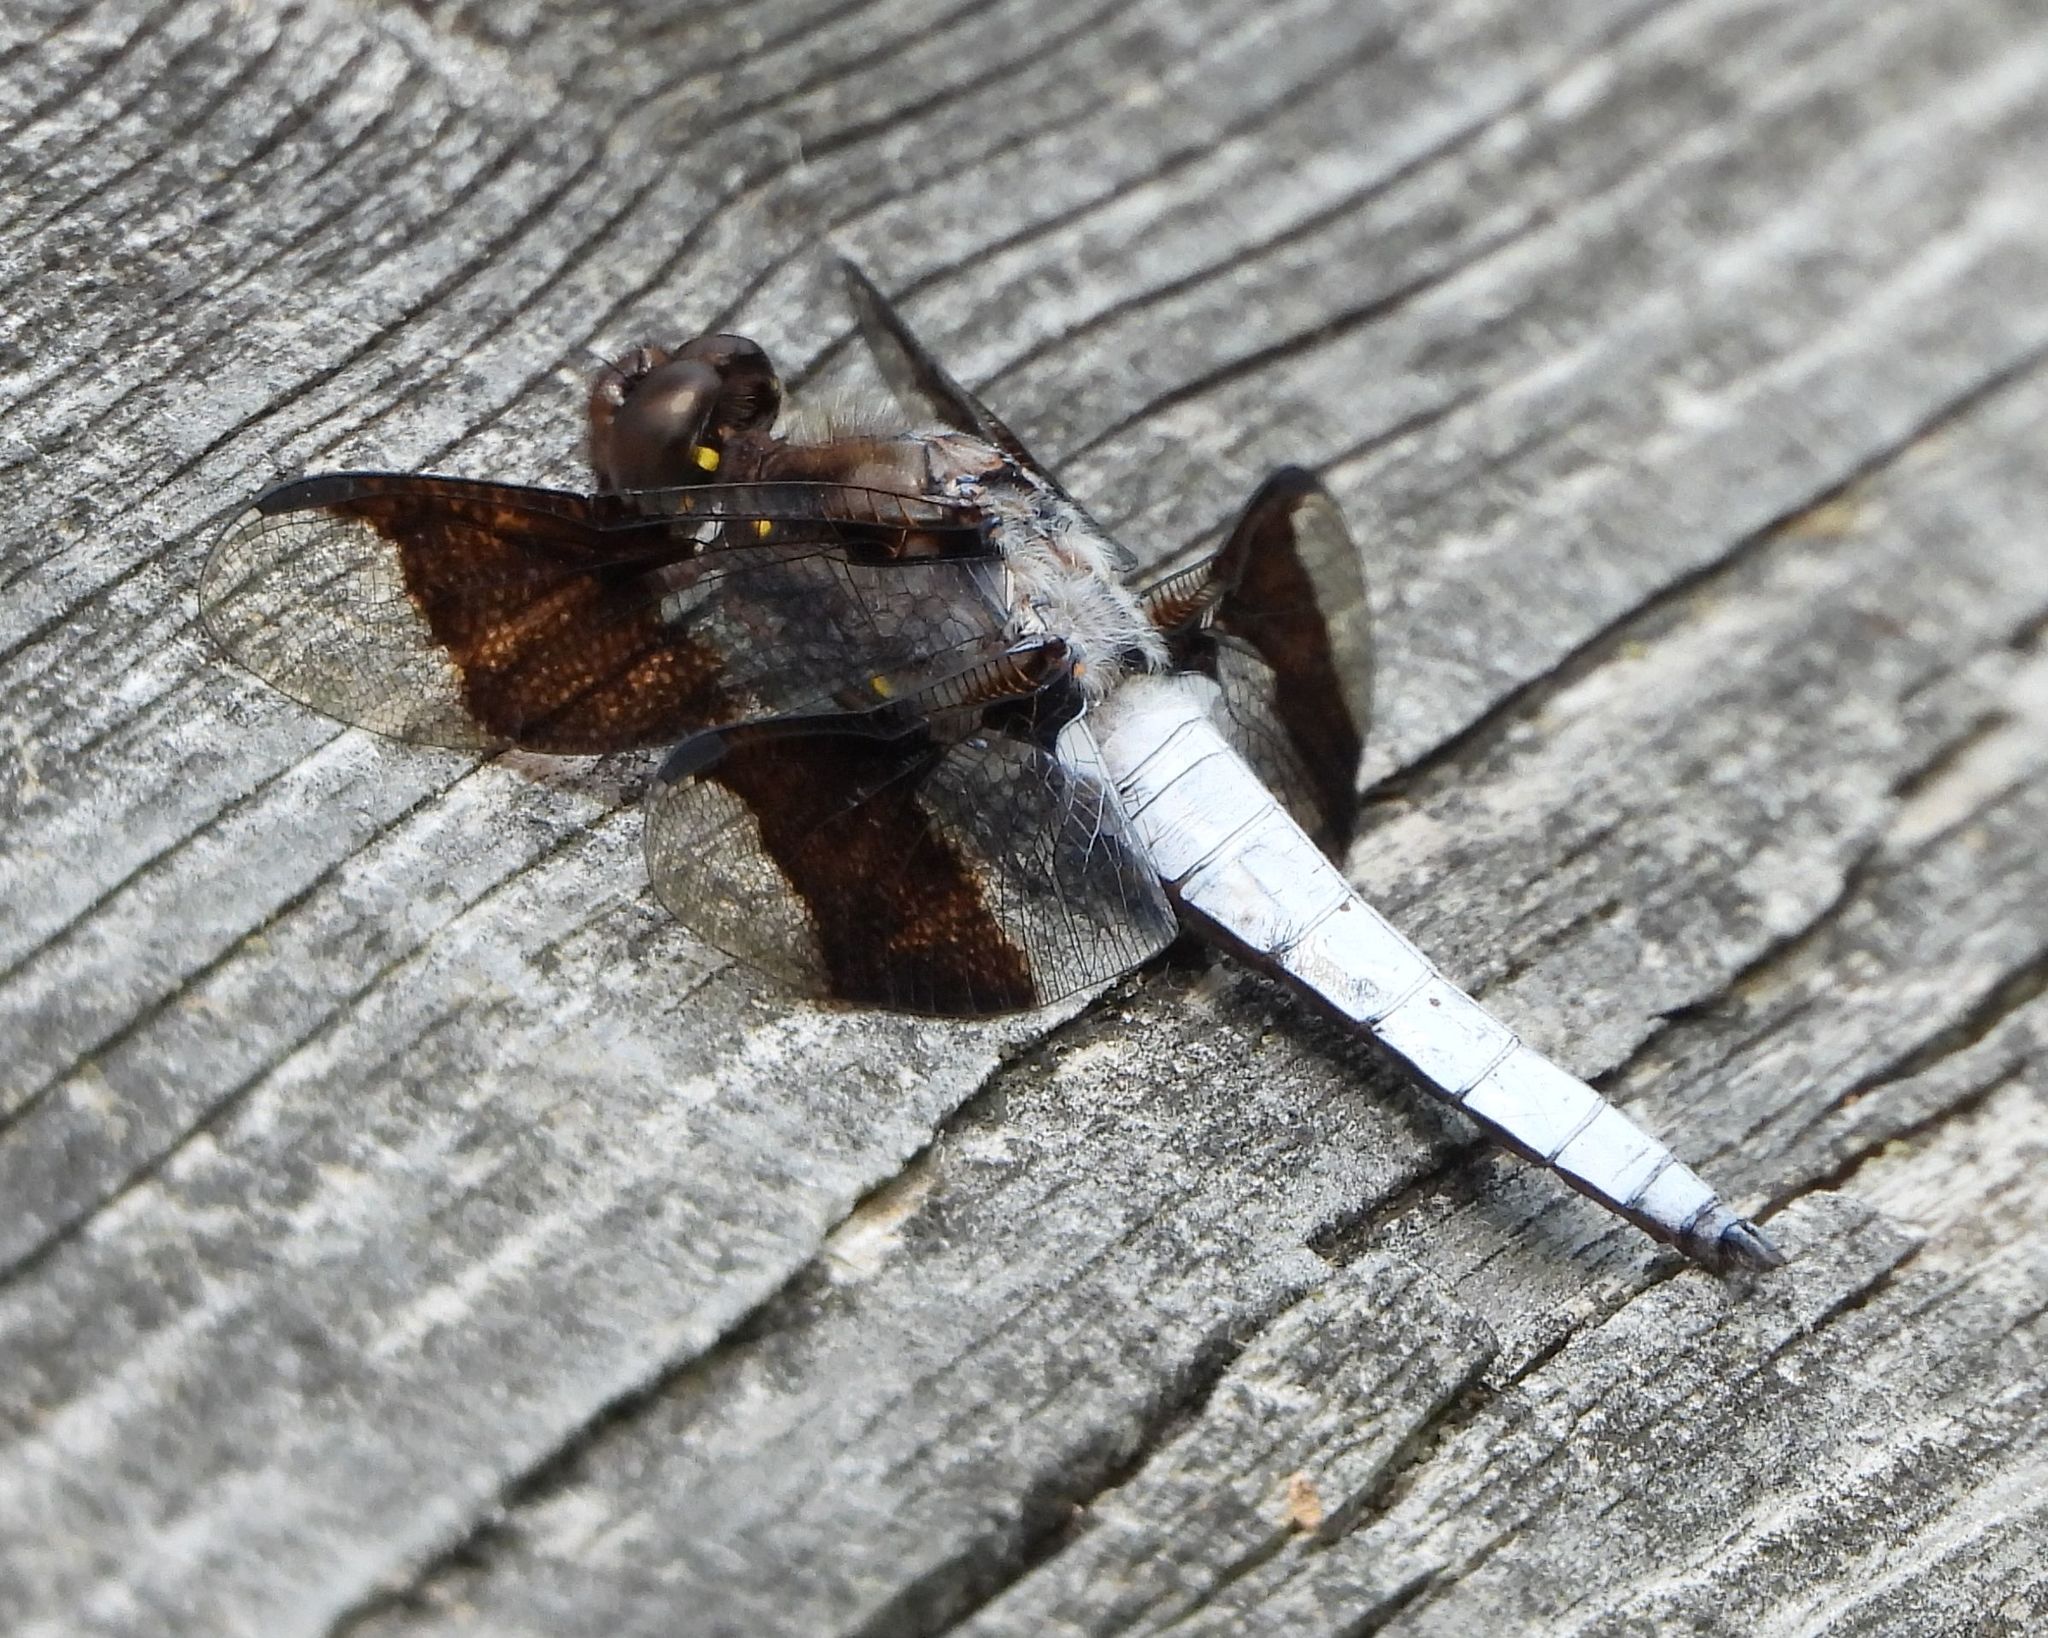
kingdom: Animalia
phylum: Arthropoda
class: Insecta
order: Odonata
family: Libellulidae
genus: Plathemis
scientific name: Plathemis lydia
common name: Common whitetail
